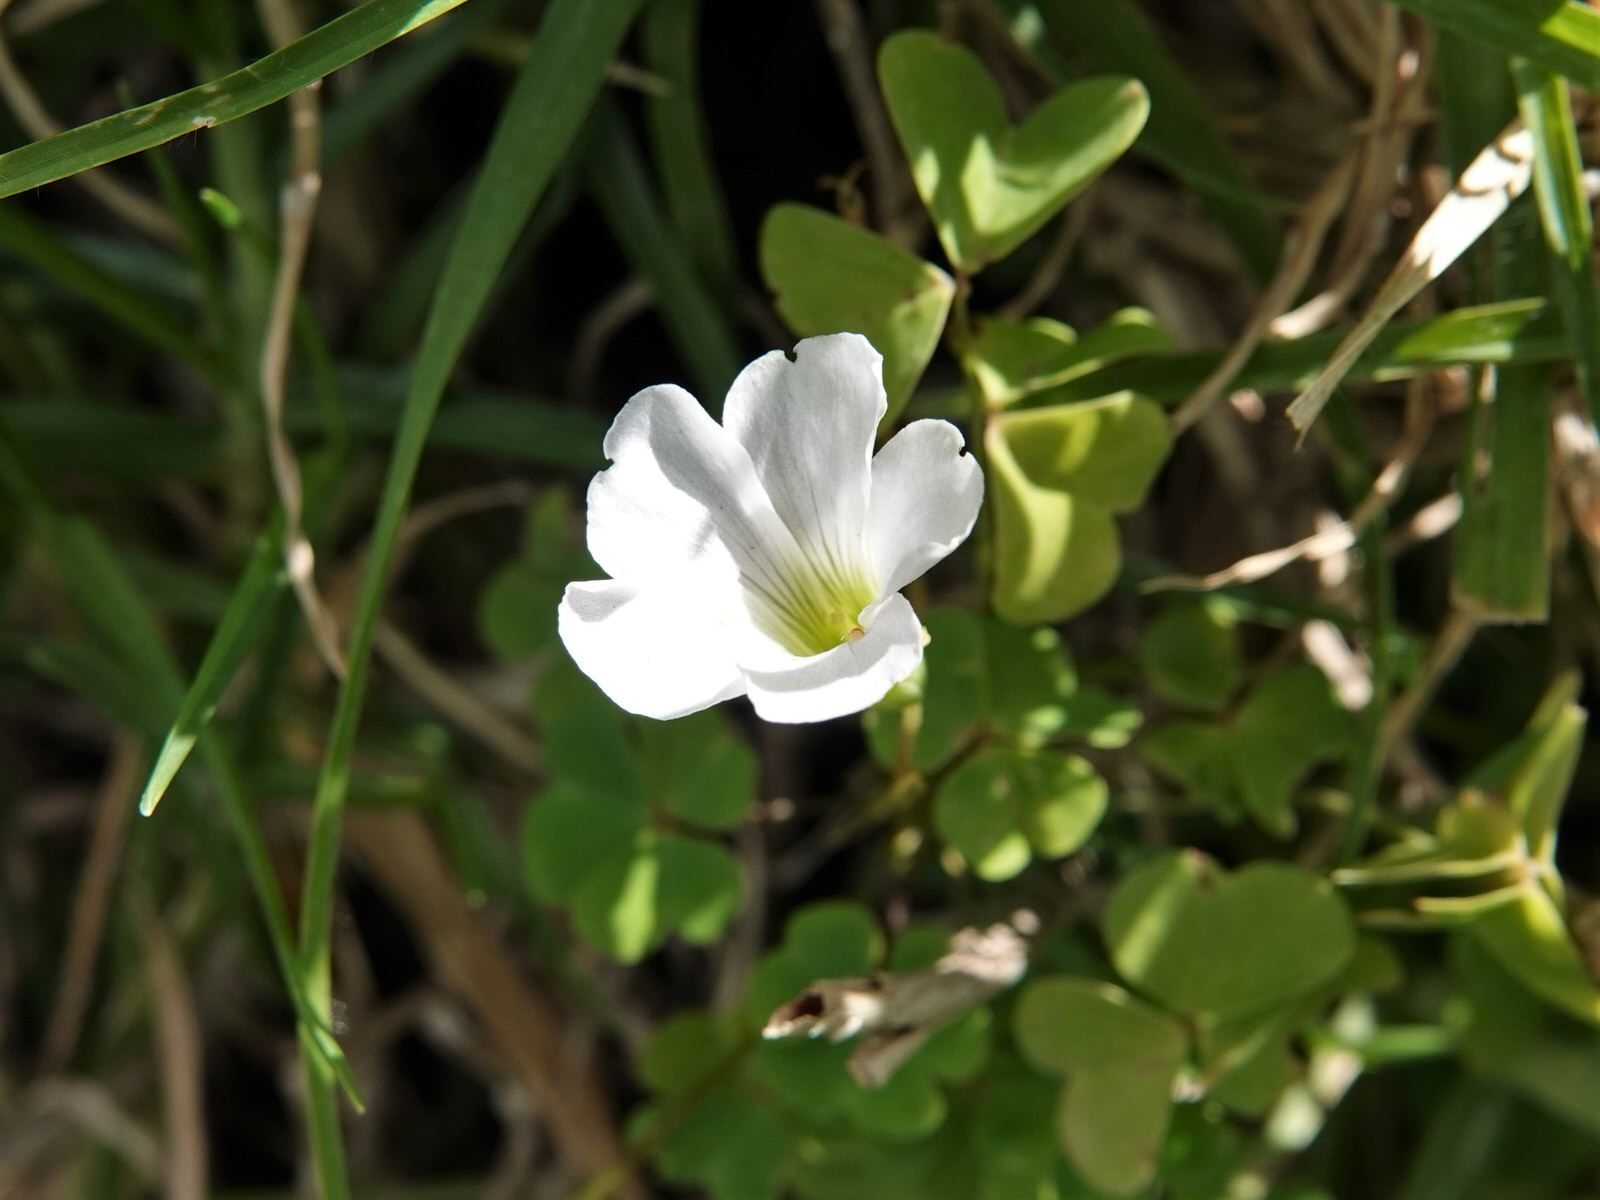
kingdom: Plantae
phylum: Tracheophyta
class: Magnoliopsida
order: Oxalidales
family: Oxalidaceae
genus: Oxalis
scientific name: Oxalis incarnata
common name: Pale pink-sorrel
